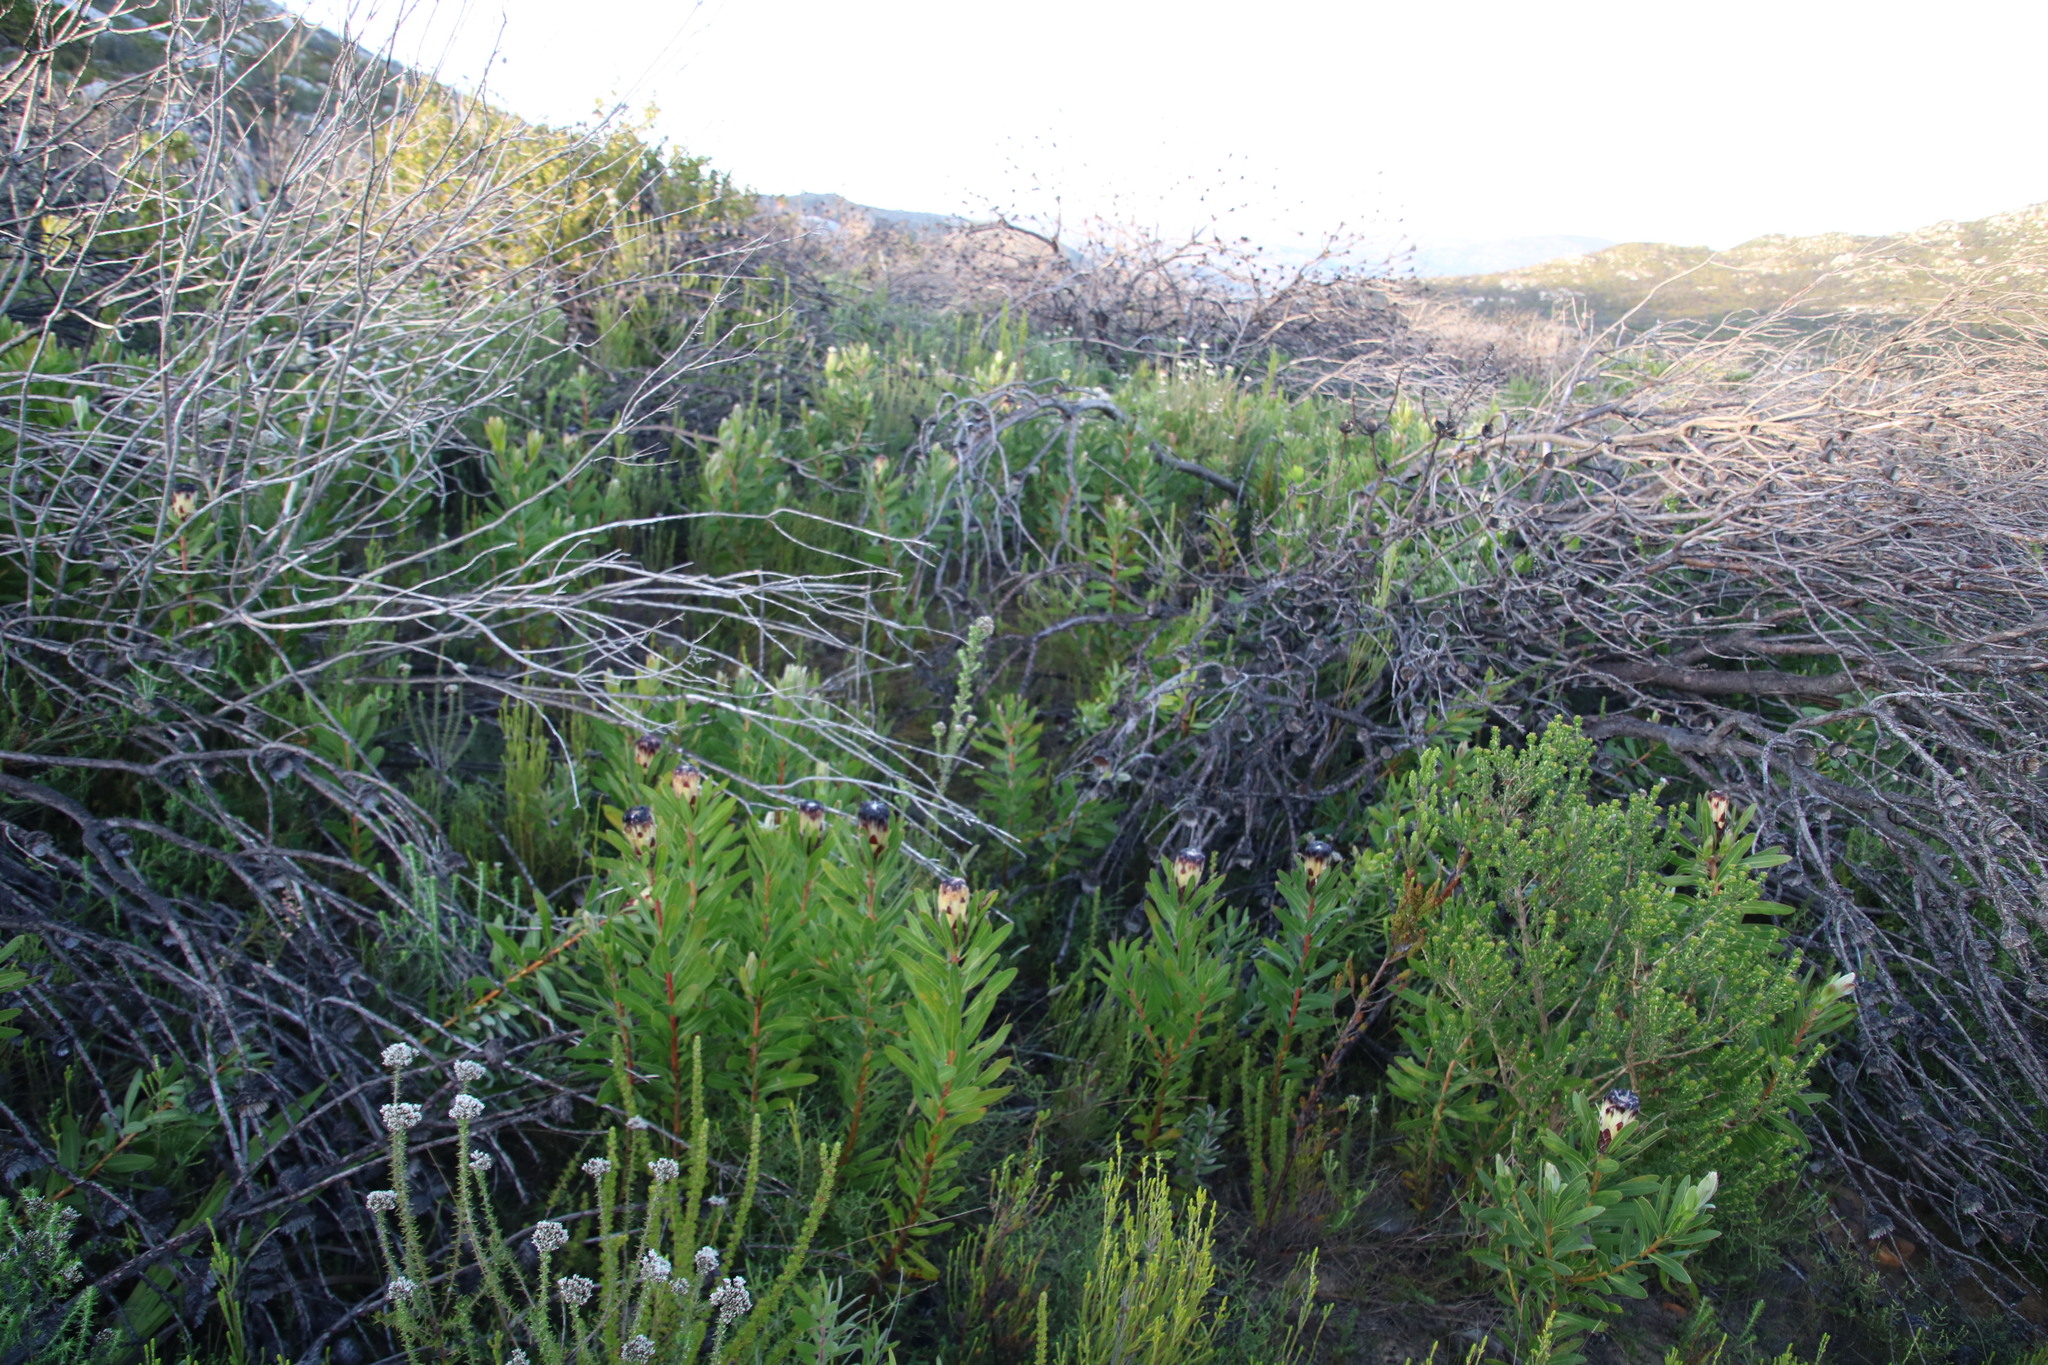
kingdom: Plantae
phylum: Tracheophyta
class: Magnoliopsida
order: Proteales
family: Proteaceae
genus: Protea
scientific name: Protea lepidocarpodendron
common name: Black-bearded protea
